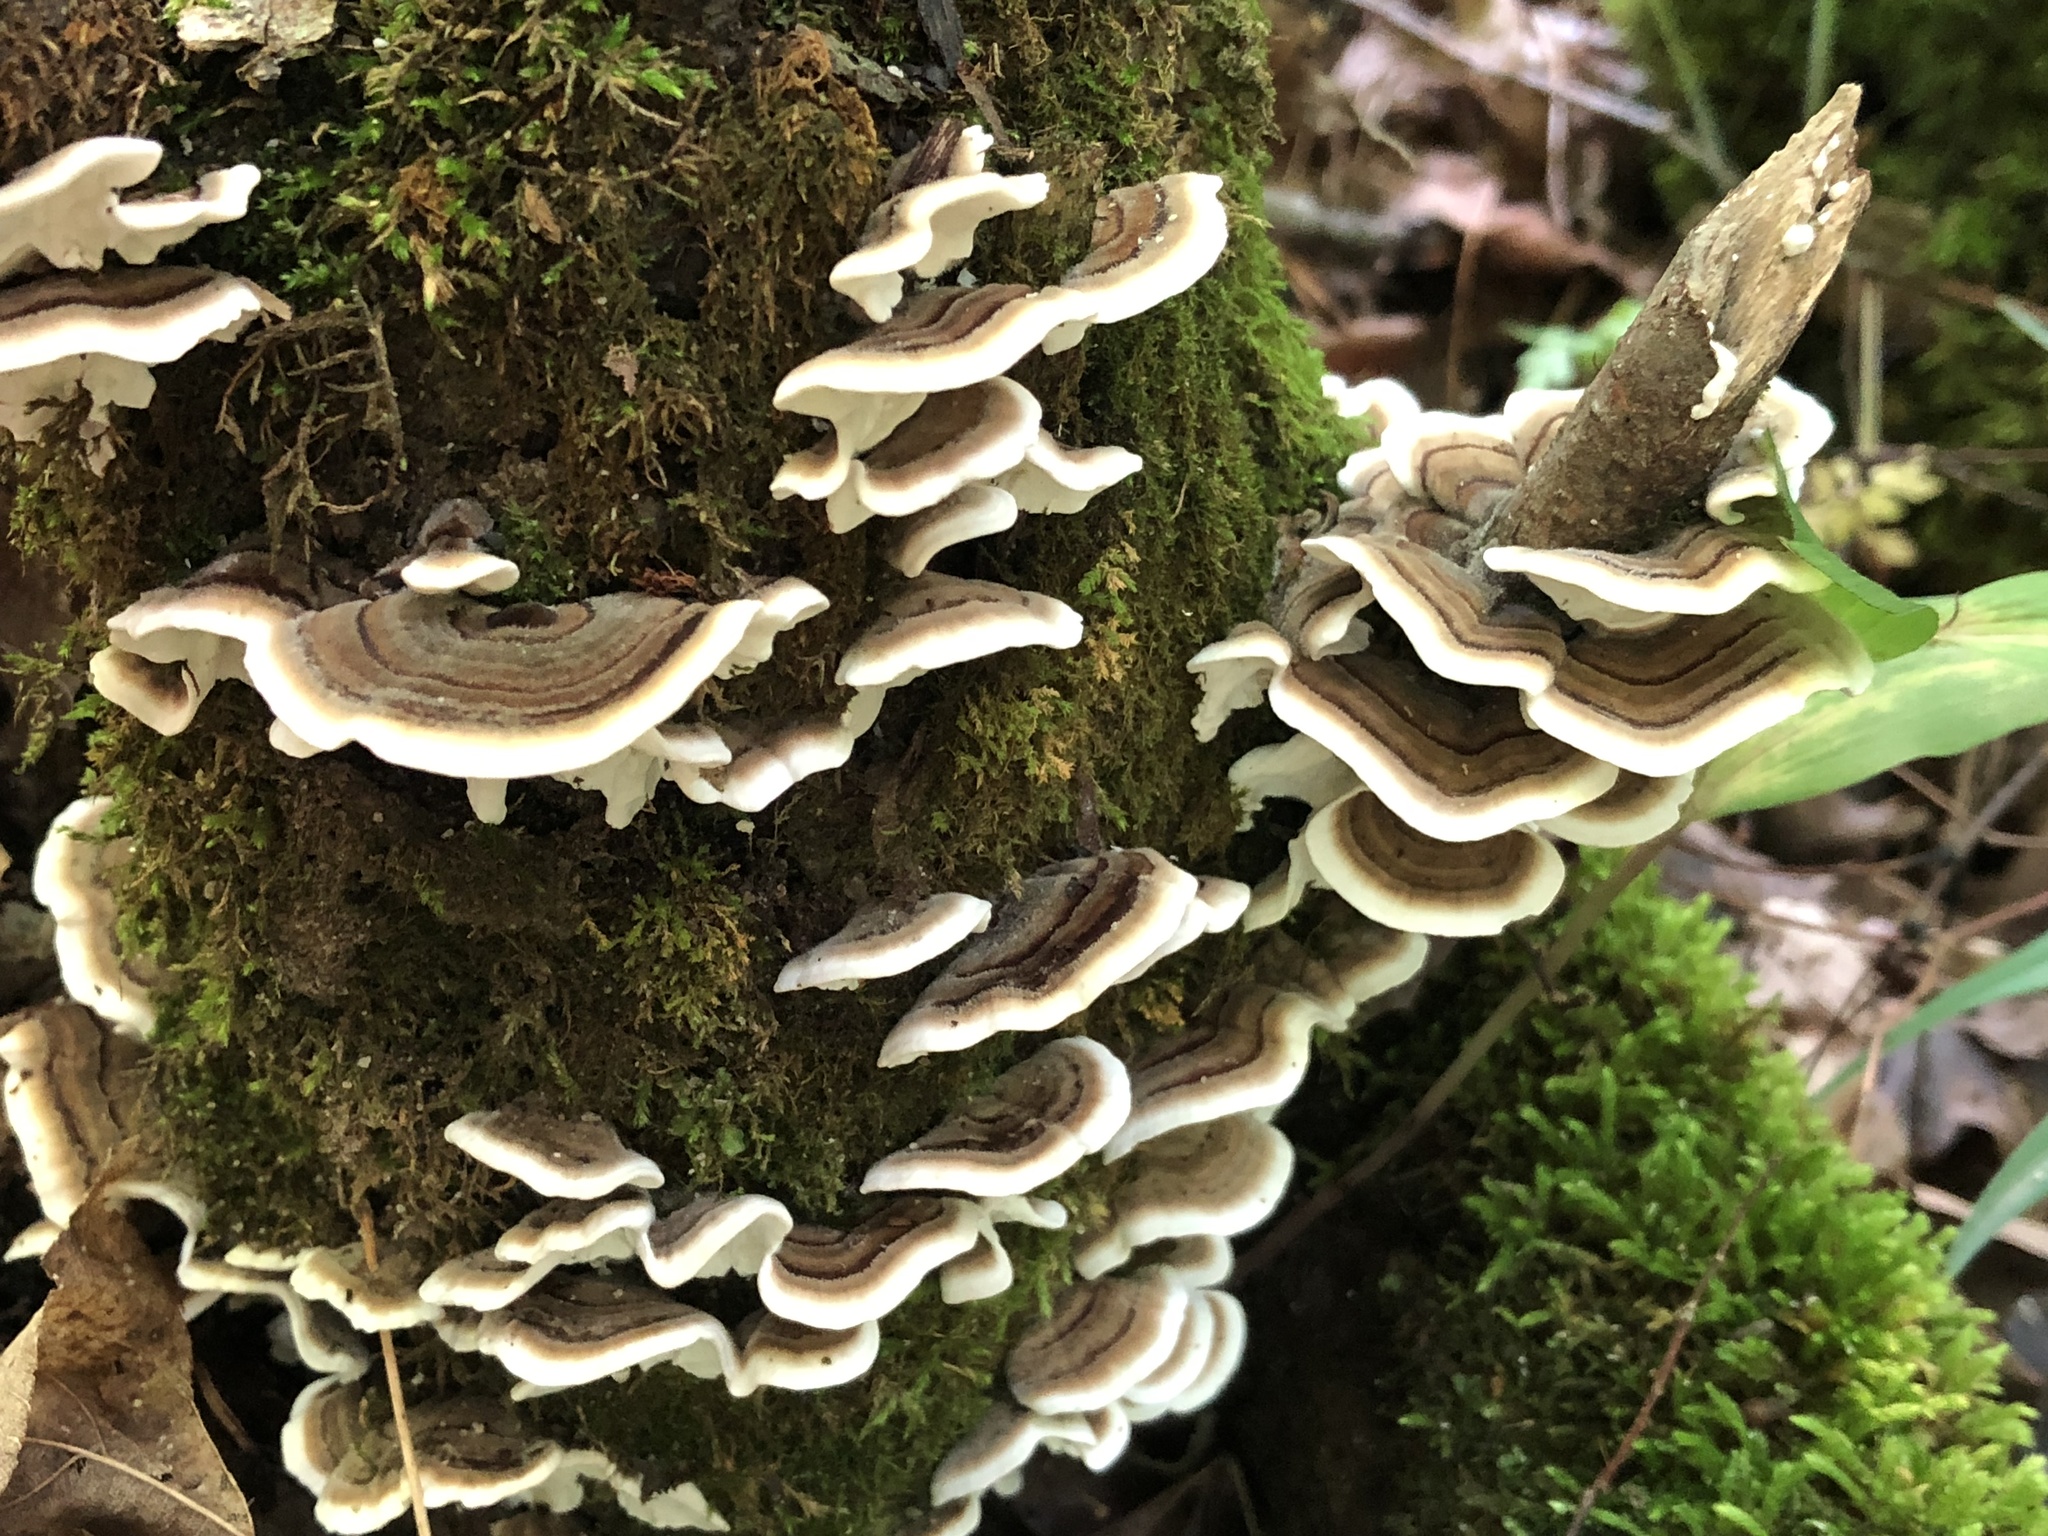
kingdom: Fungi
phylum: Basidiomycota
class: Agaricomycetes
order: Polyporales
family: Polyporaceae
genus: Trametes
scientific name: Trametes versicolor
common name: Turkeytail
